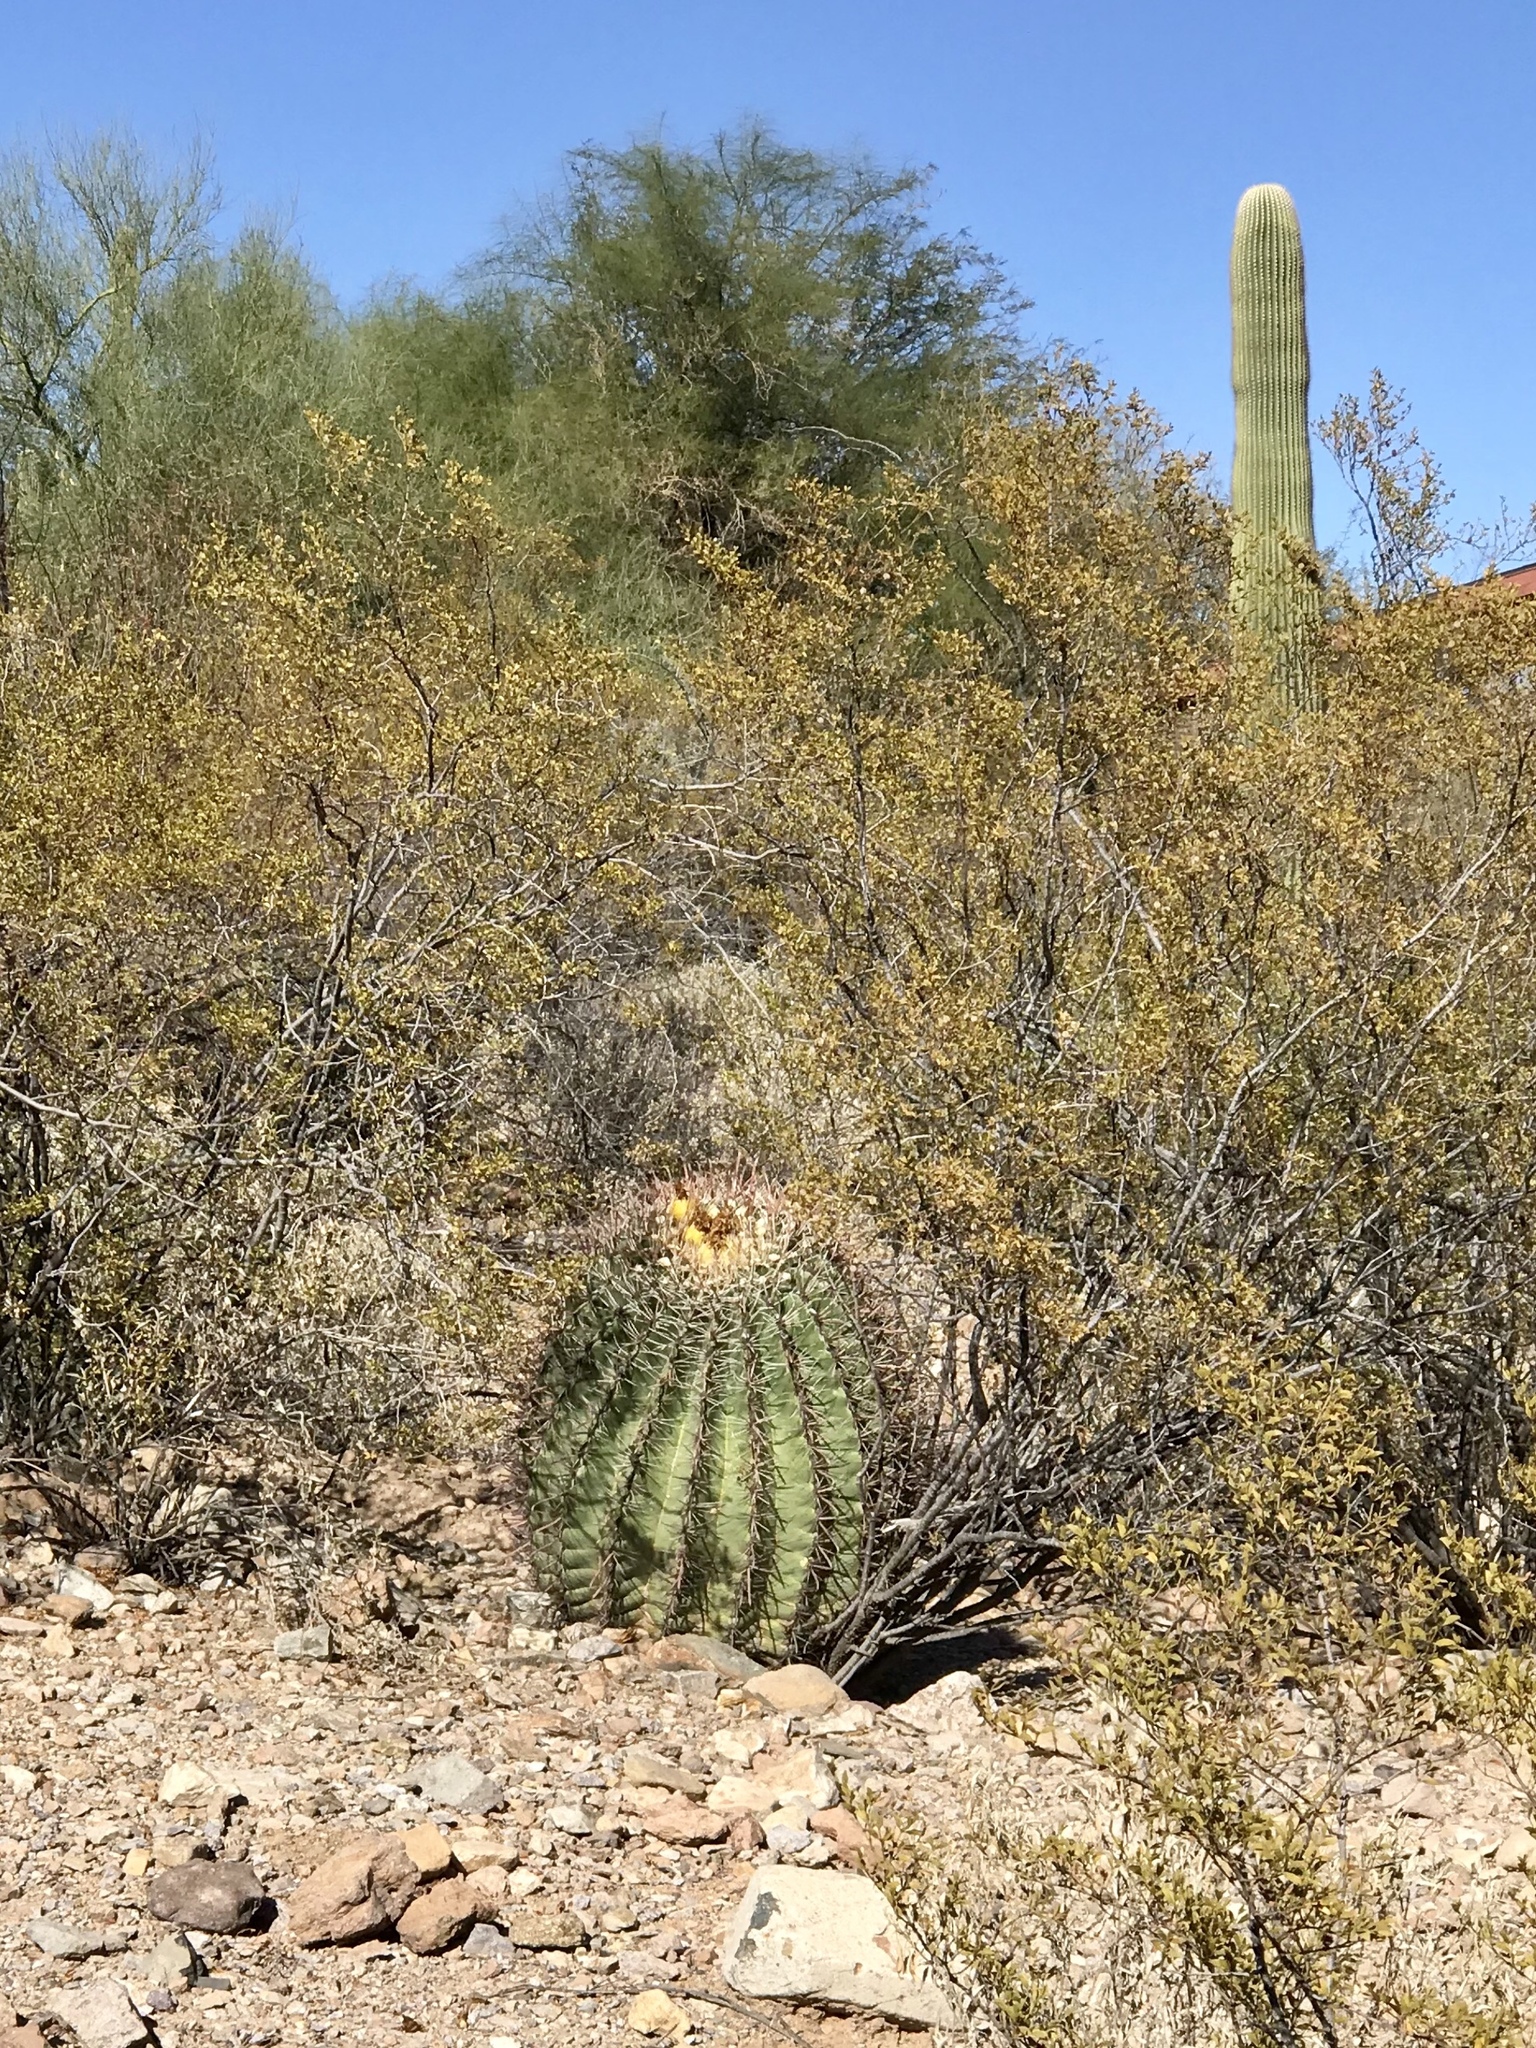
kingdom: Plantae
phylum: Tracheophyta
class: Magnoliopsida
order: Caryophyllales
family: Cactaceae
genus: Ferocactus
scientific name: Ferocactus wislizeni
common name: Candy barrel cactus
